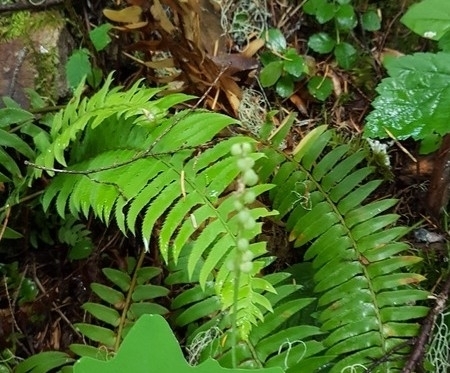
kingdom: Plantae
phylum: Tracheophyta
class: Polypodiopsida
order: Polypodiales
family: Dryopteridaceae
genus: Polystichum
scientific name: Polystichum munitum
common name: Western sword-fern
